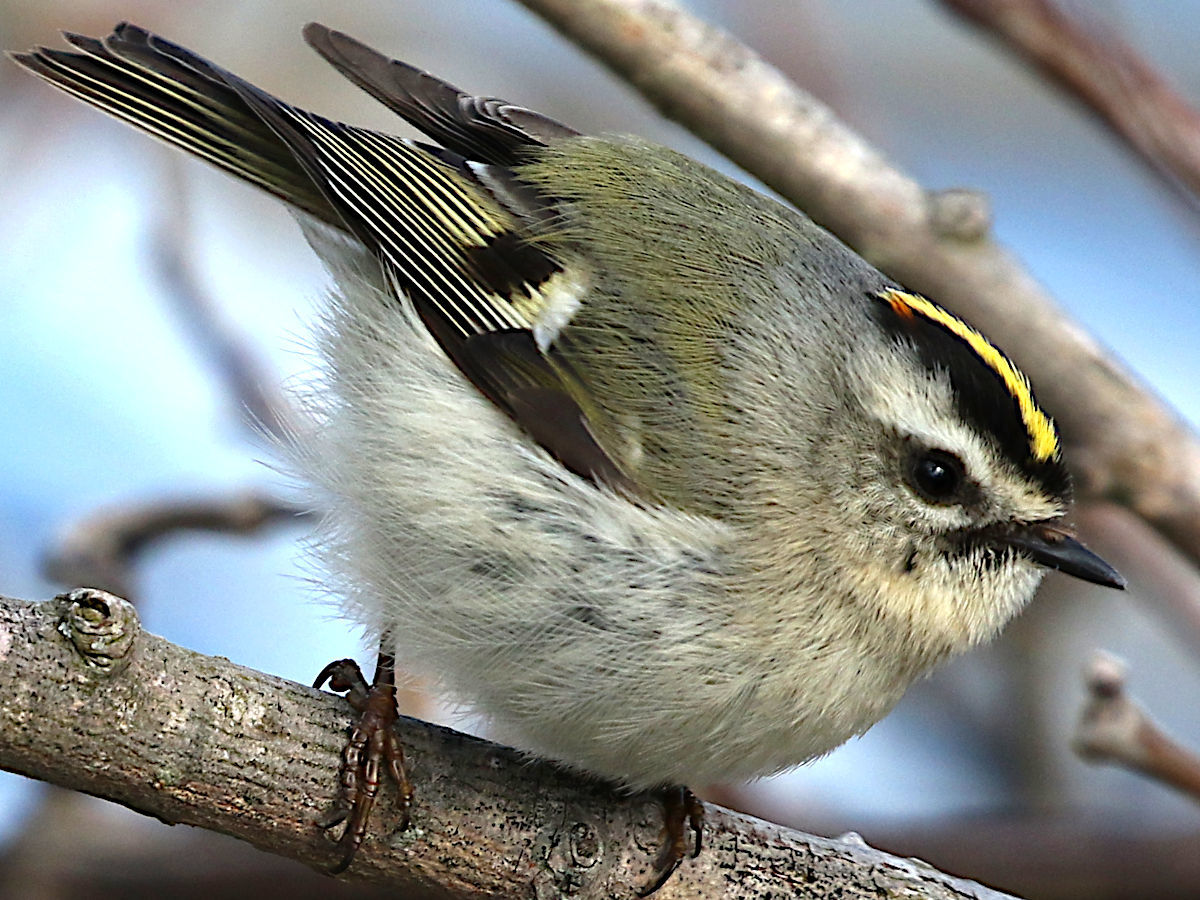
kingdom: Animalia
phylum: Chordata
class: Aves
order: Passeriformes
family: Regulidae
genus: Regulus
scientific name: Regulus satrapa
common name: Golden-crowned kinglet
